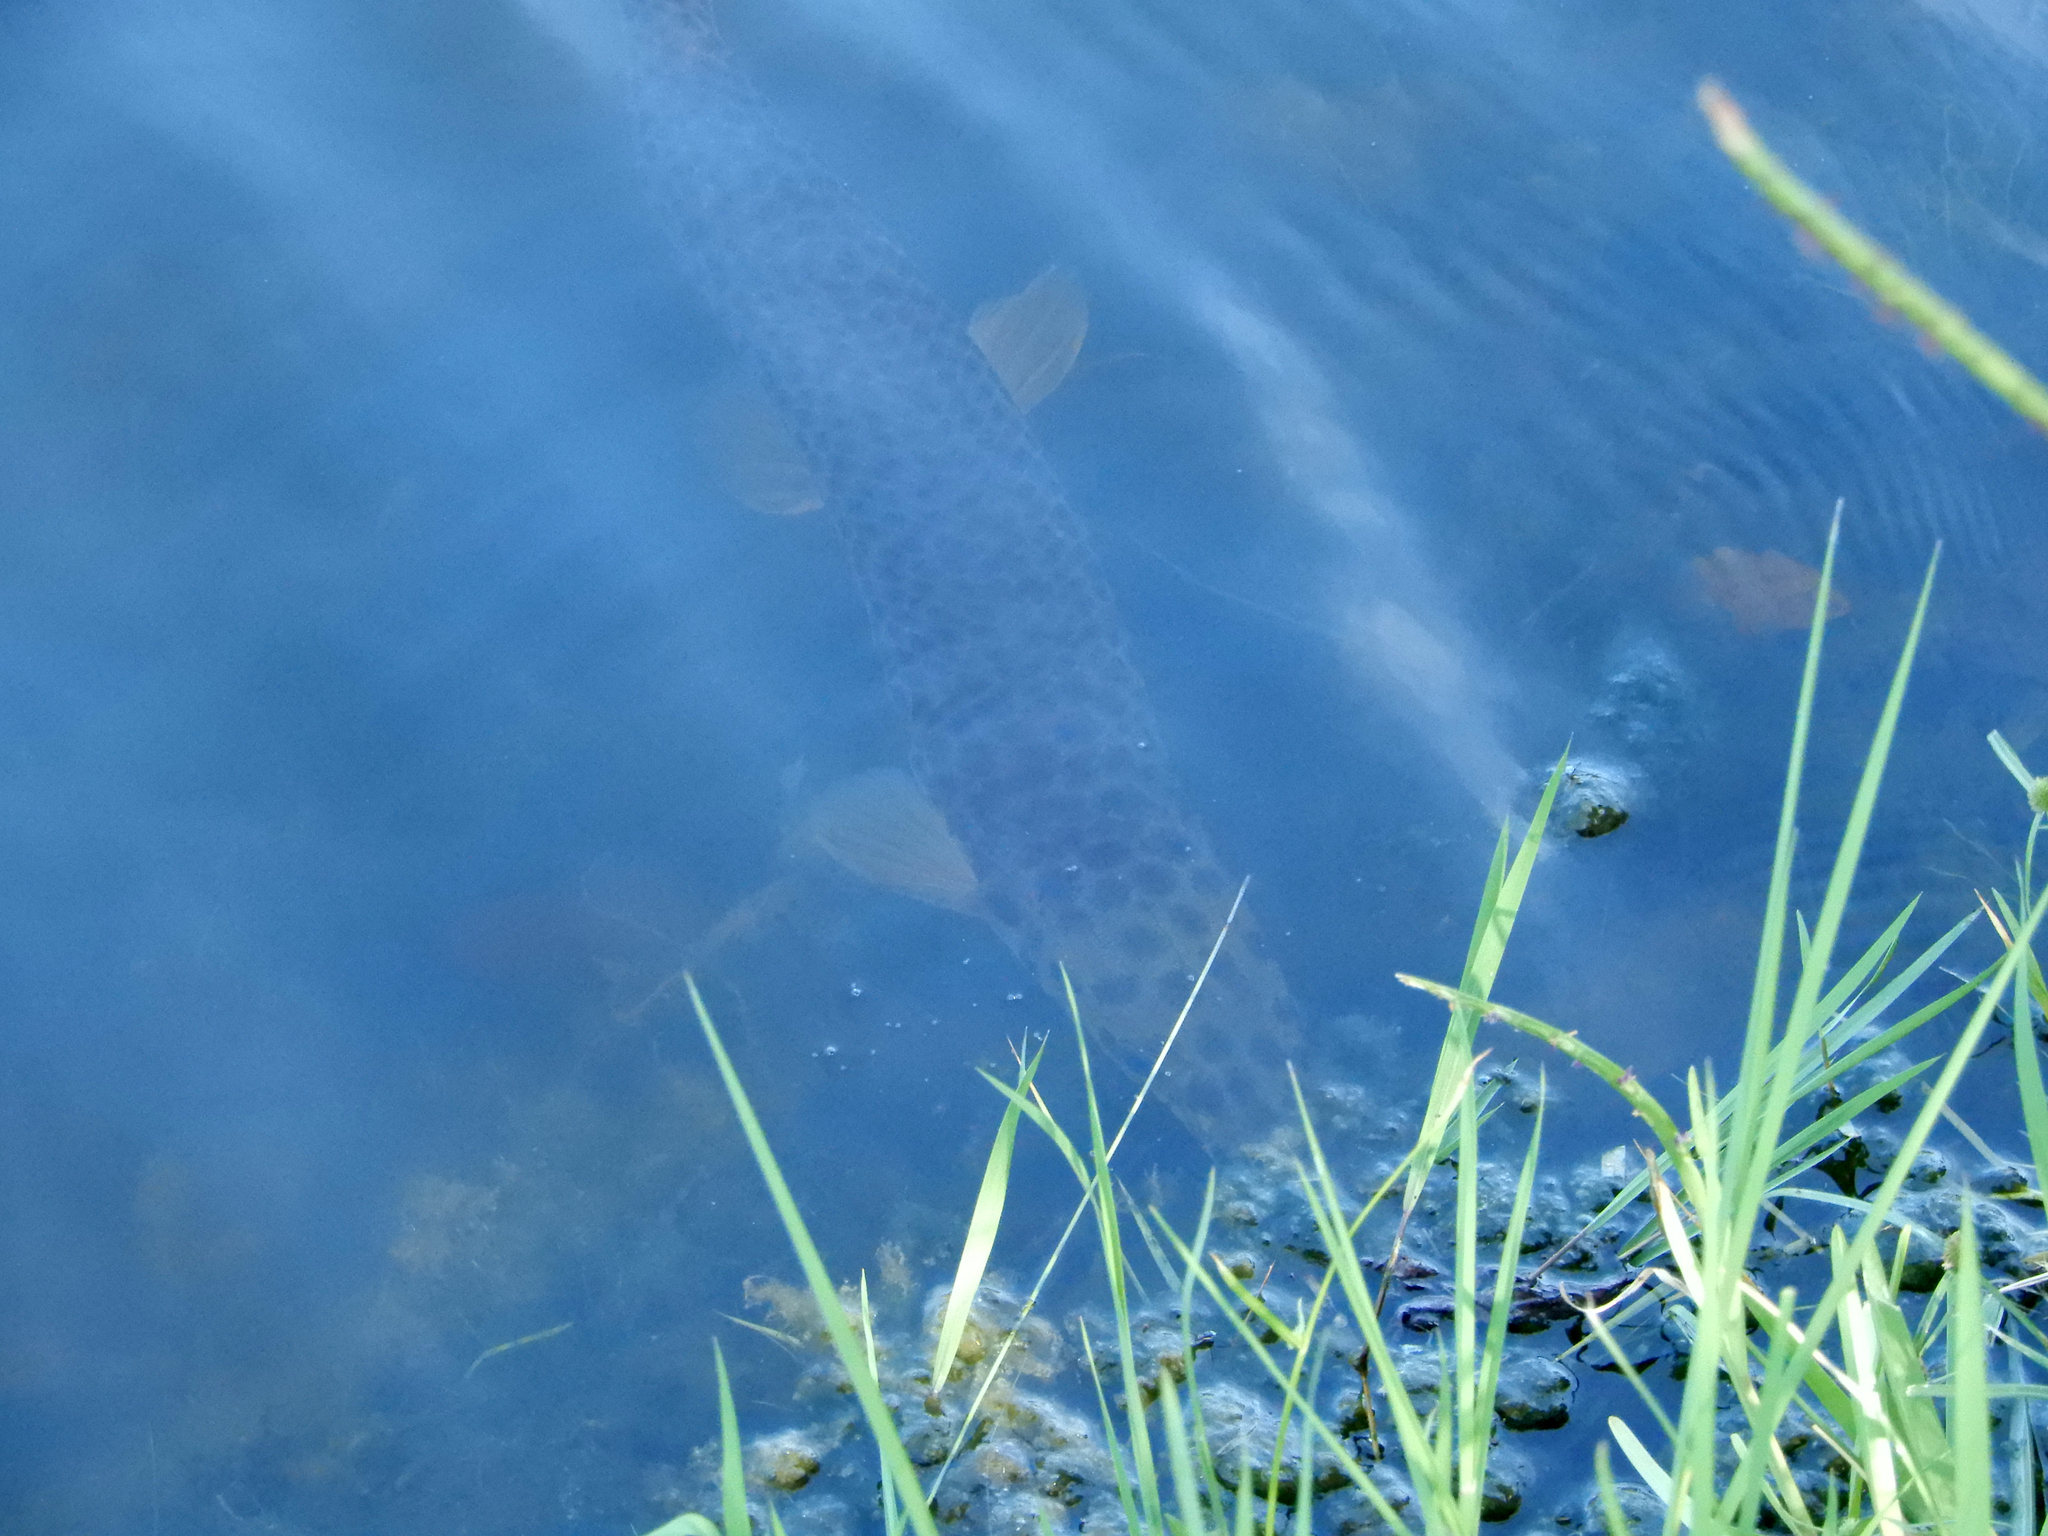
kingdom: Animalia
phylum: Chordata
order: Lepisosteiformes
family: Lepisosteidae
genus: Lepisosteus
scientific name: Lepisosteus platyrhincus
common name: Florida gar
